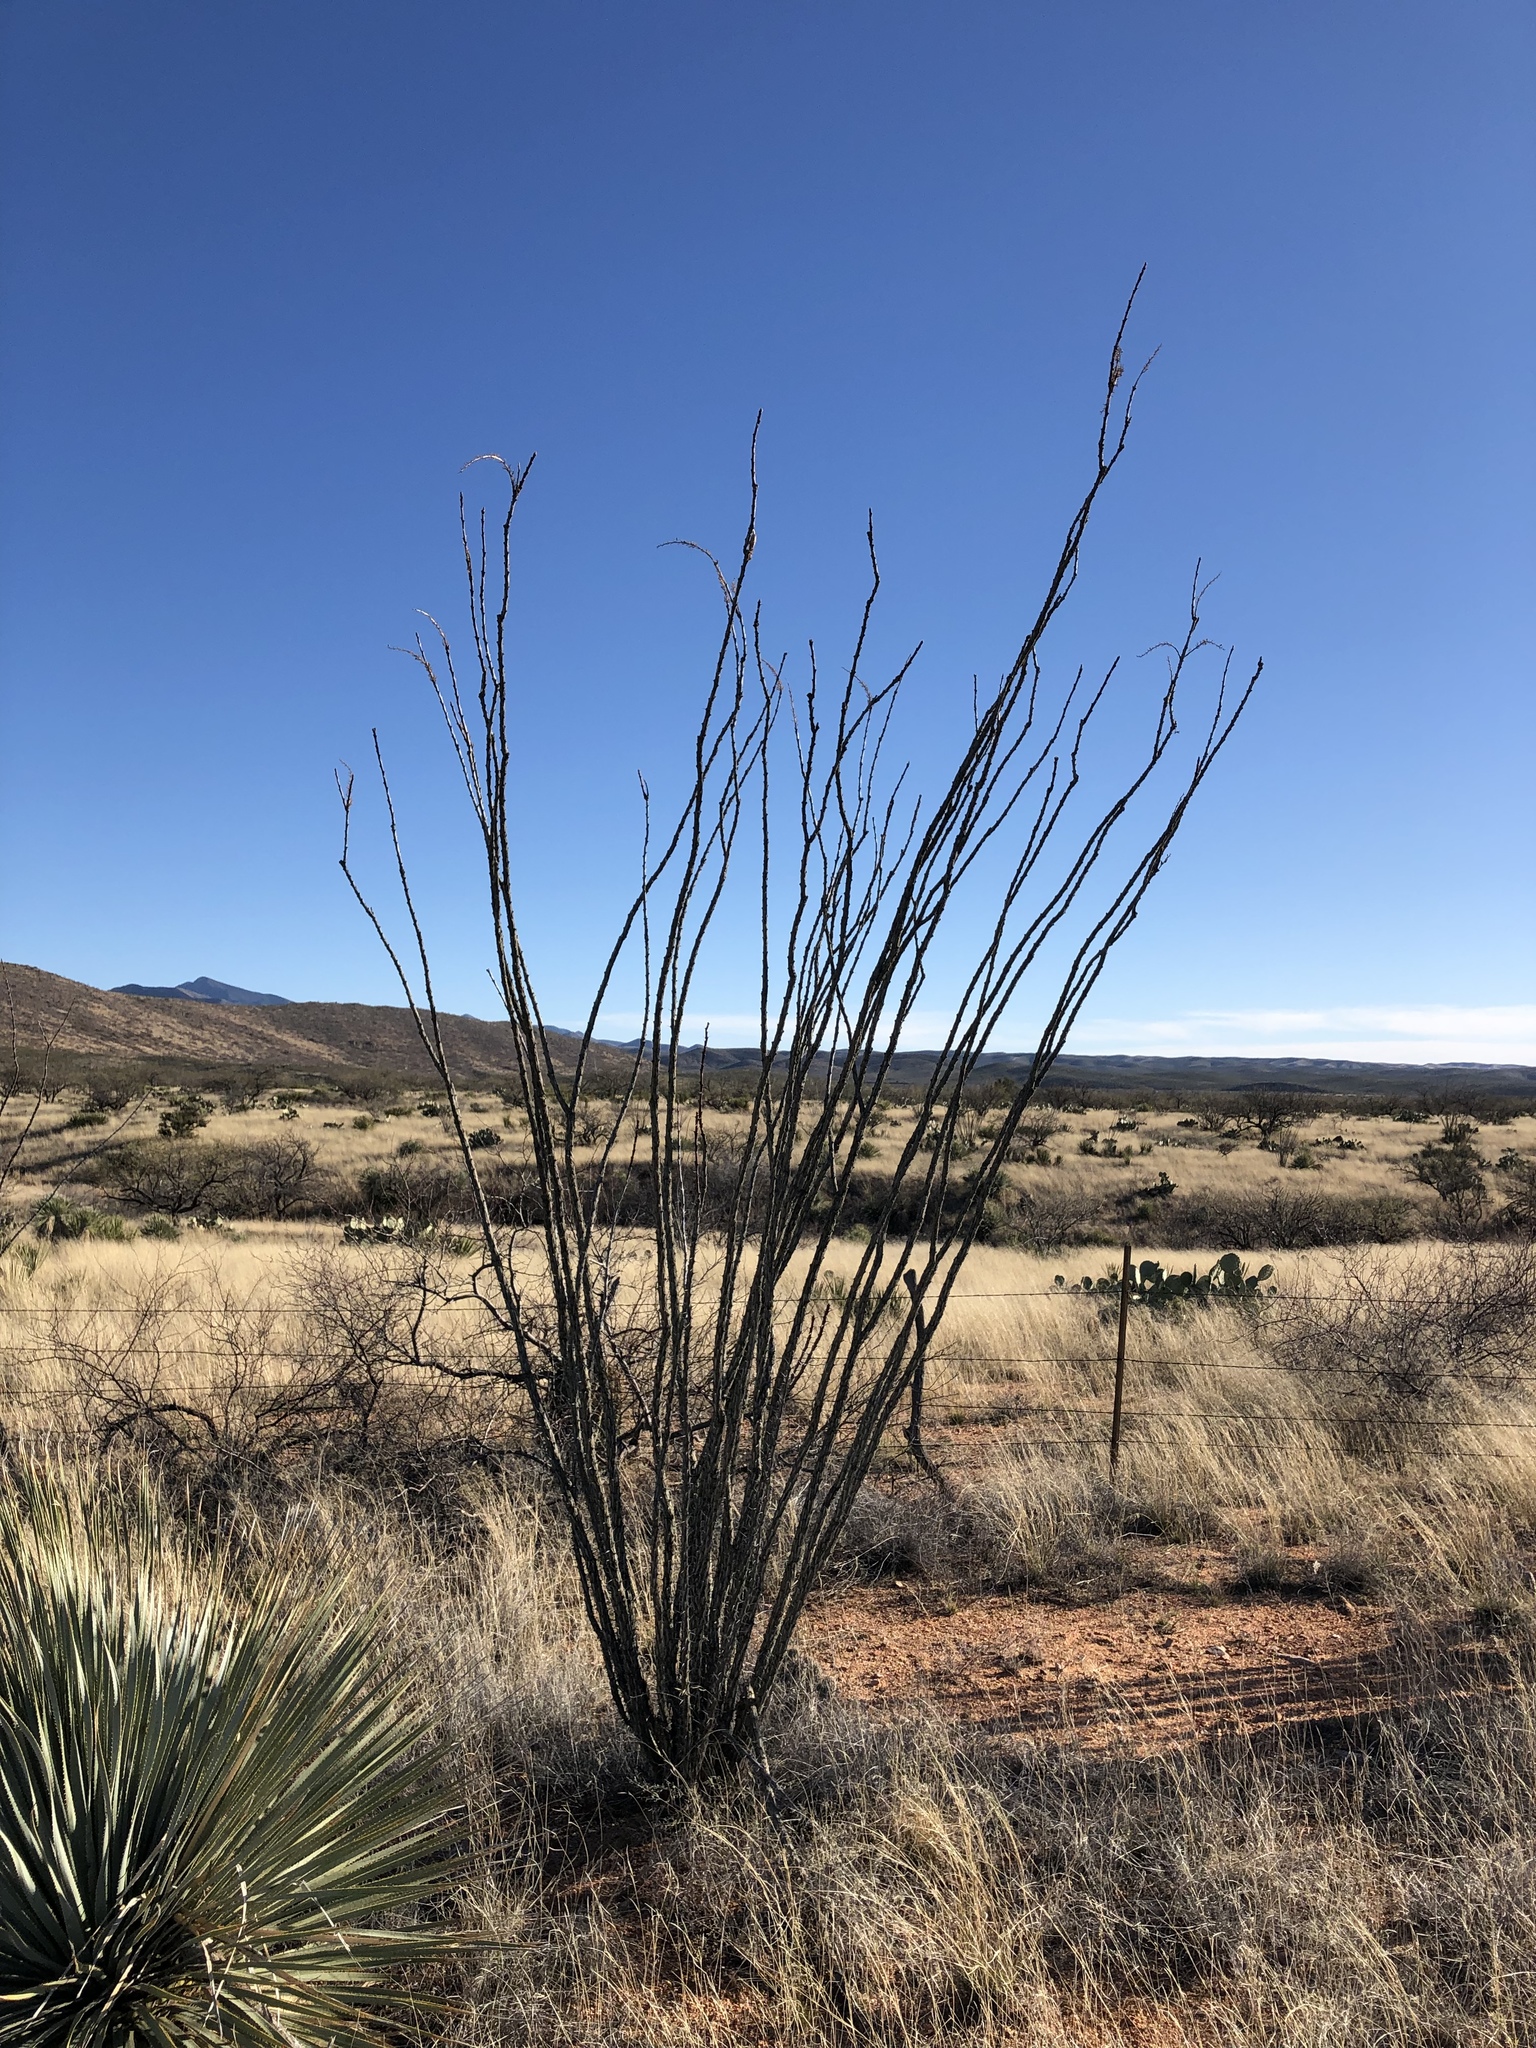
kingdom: Plantae
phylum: Tracheophyta
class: Magnoliopsida
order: Ericales
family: Fouquieriaceae
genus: Fouquieria
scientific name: Fouquieria splendens
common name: Vine-cactus
